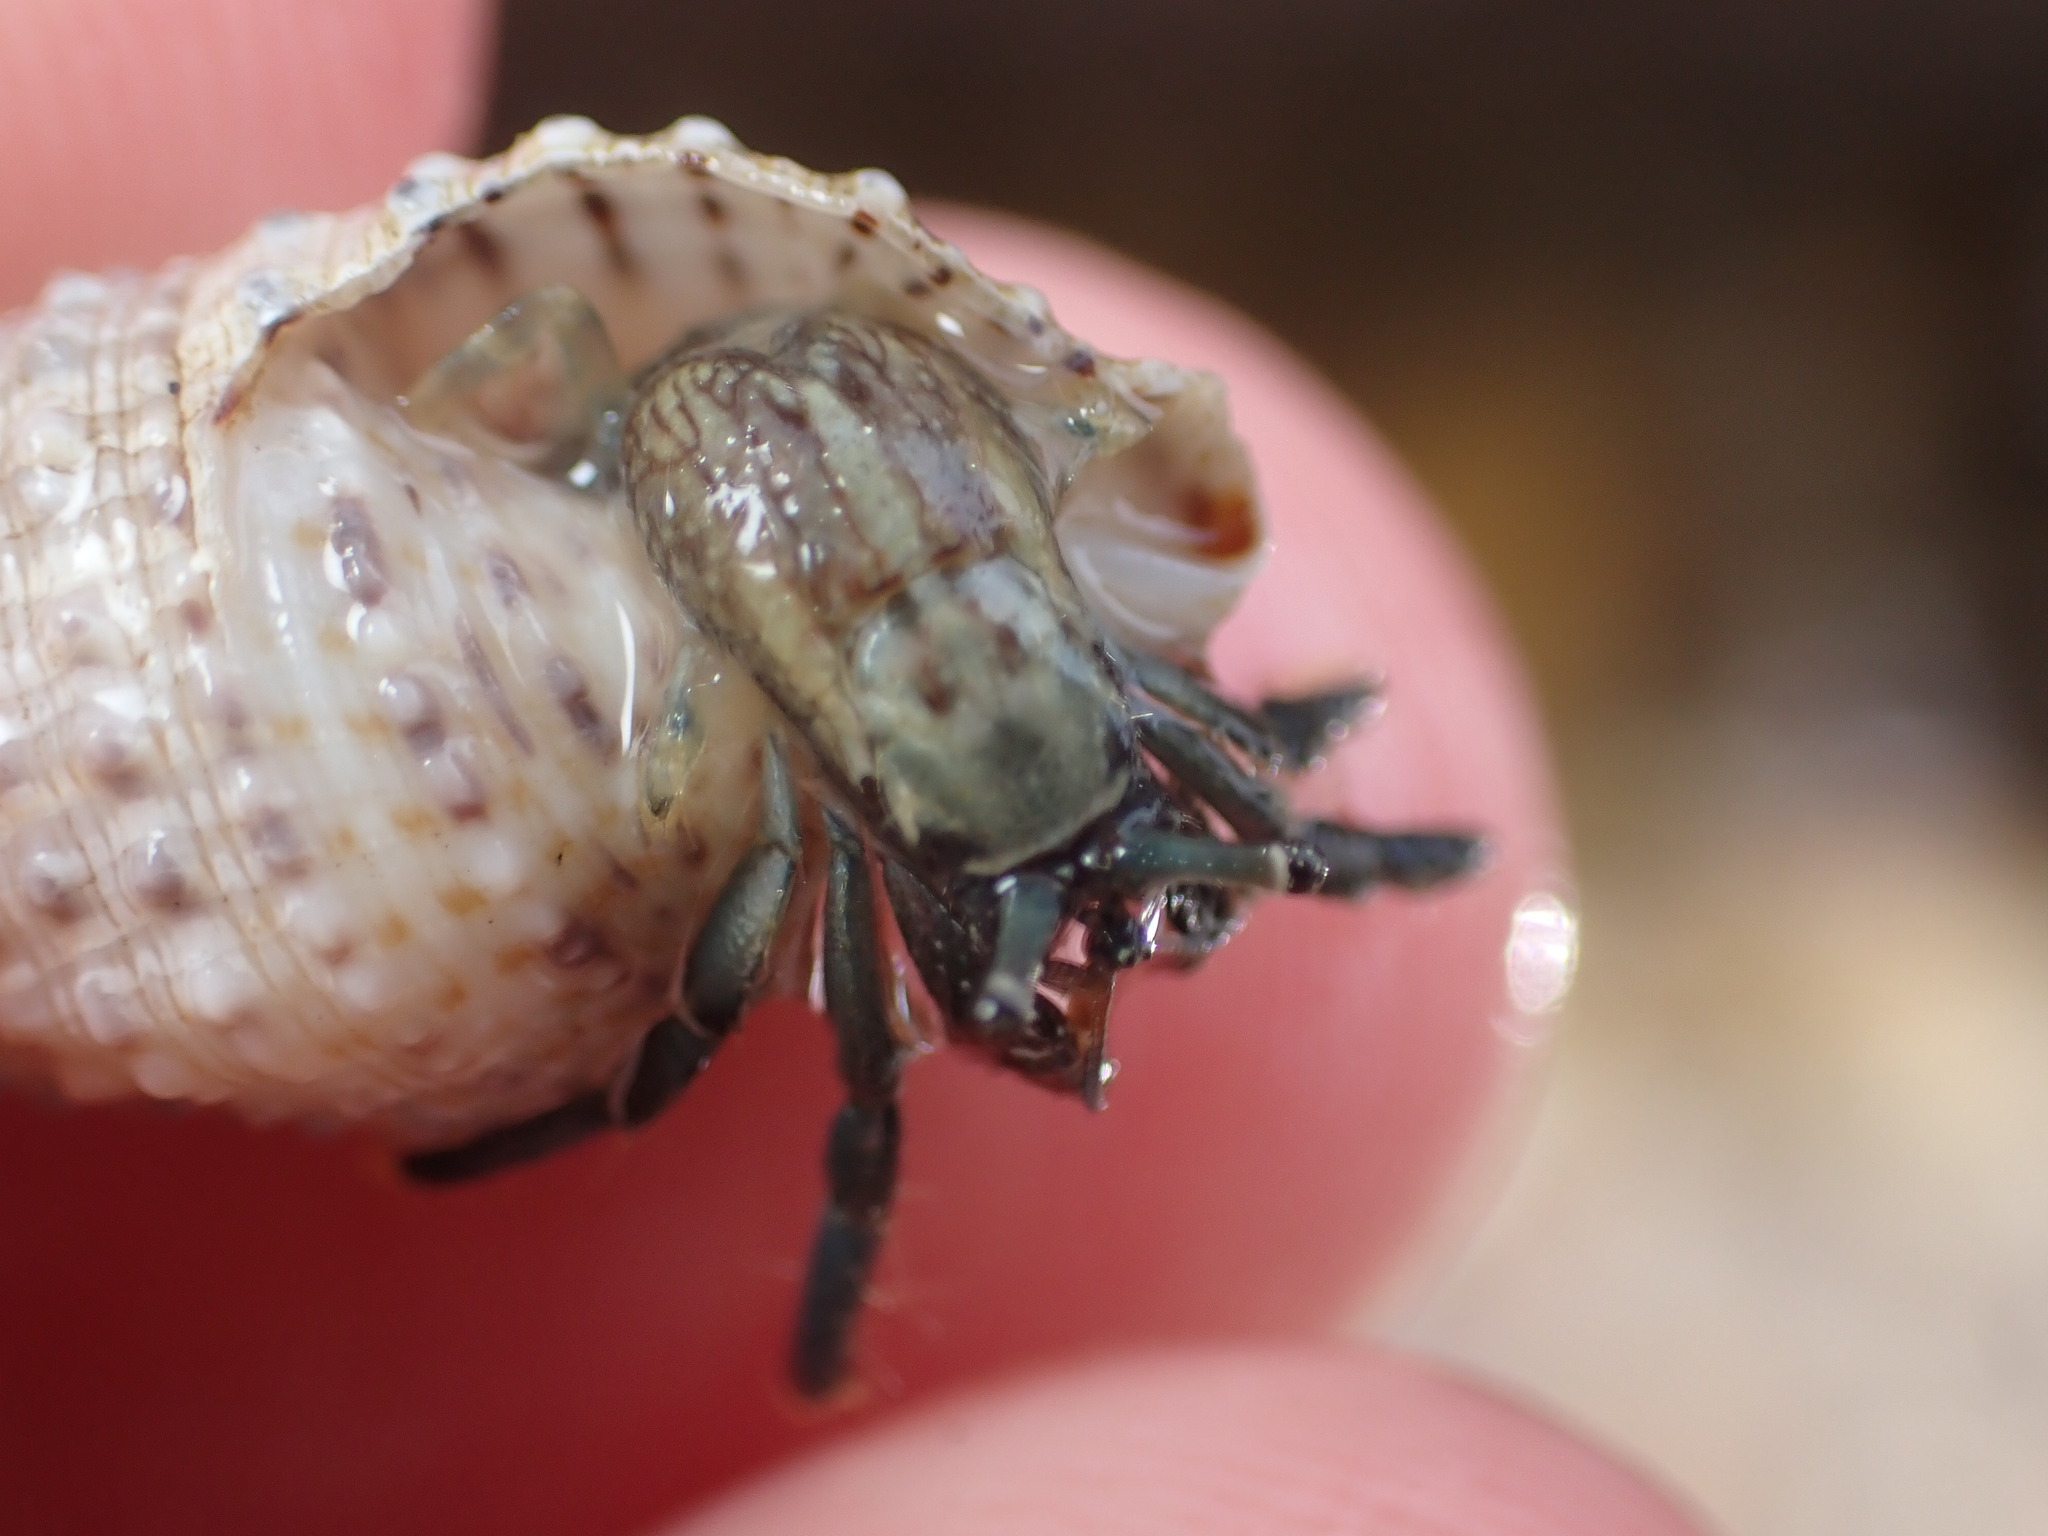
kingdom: Animalia
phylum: Arthropoda
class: Malacostraca
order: Decapoda
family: Diogenidae
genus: Clibanarius
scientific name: Clibanarius virescens
